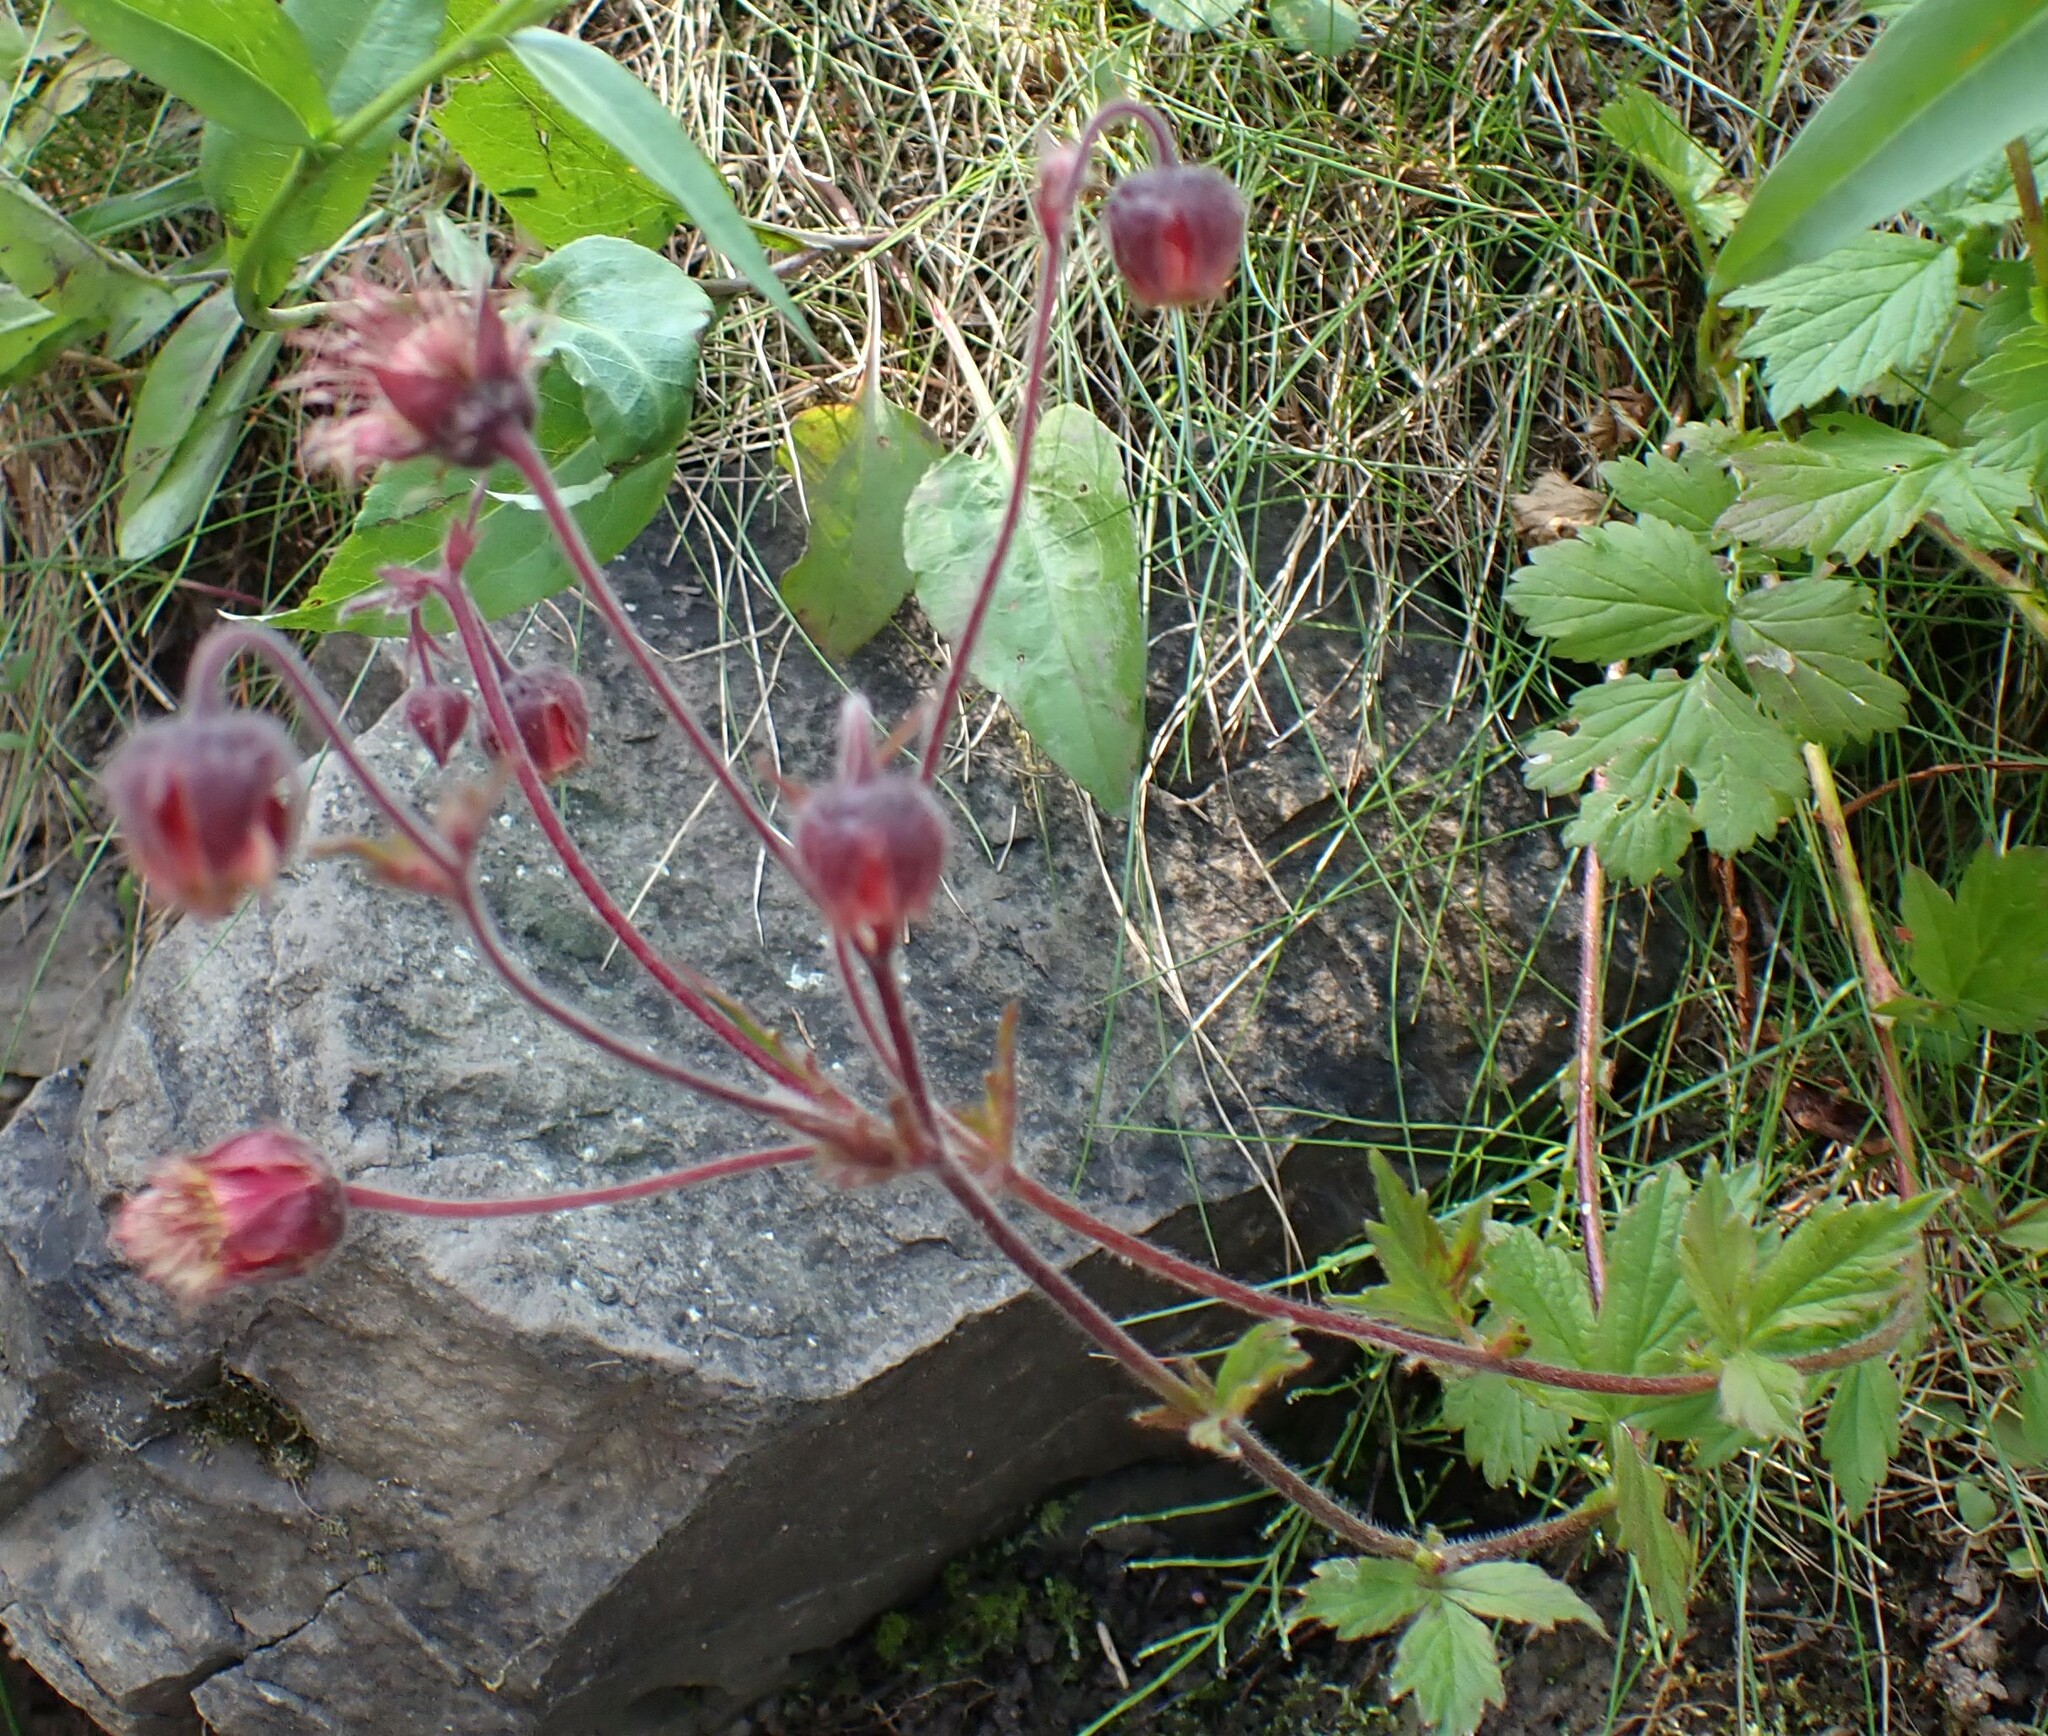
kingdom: Plantae
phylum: Tracheophyta
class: Magnoliopsida
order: Rosales
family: Rosaceae
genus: Geum
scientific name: Geum rivale
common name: Water avens
